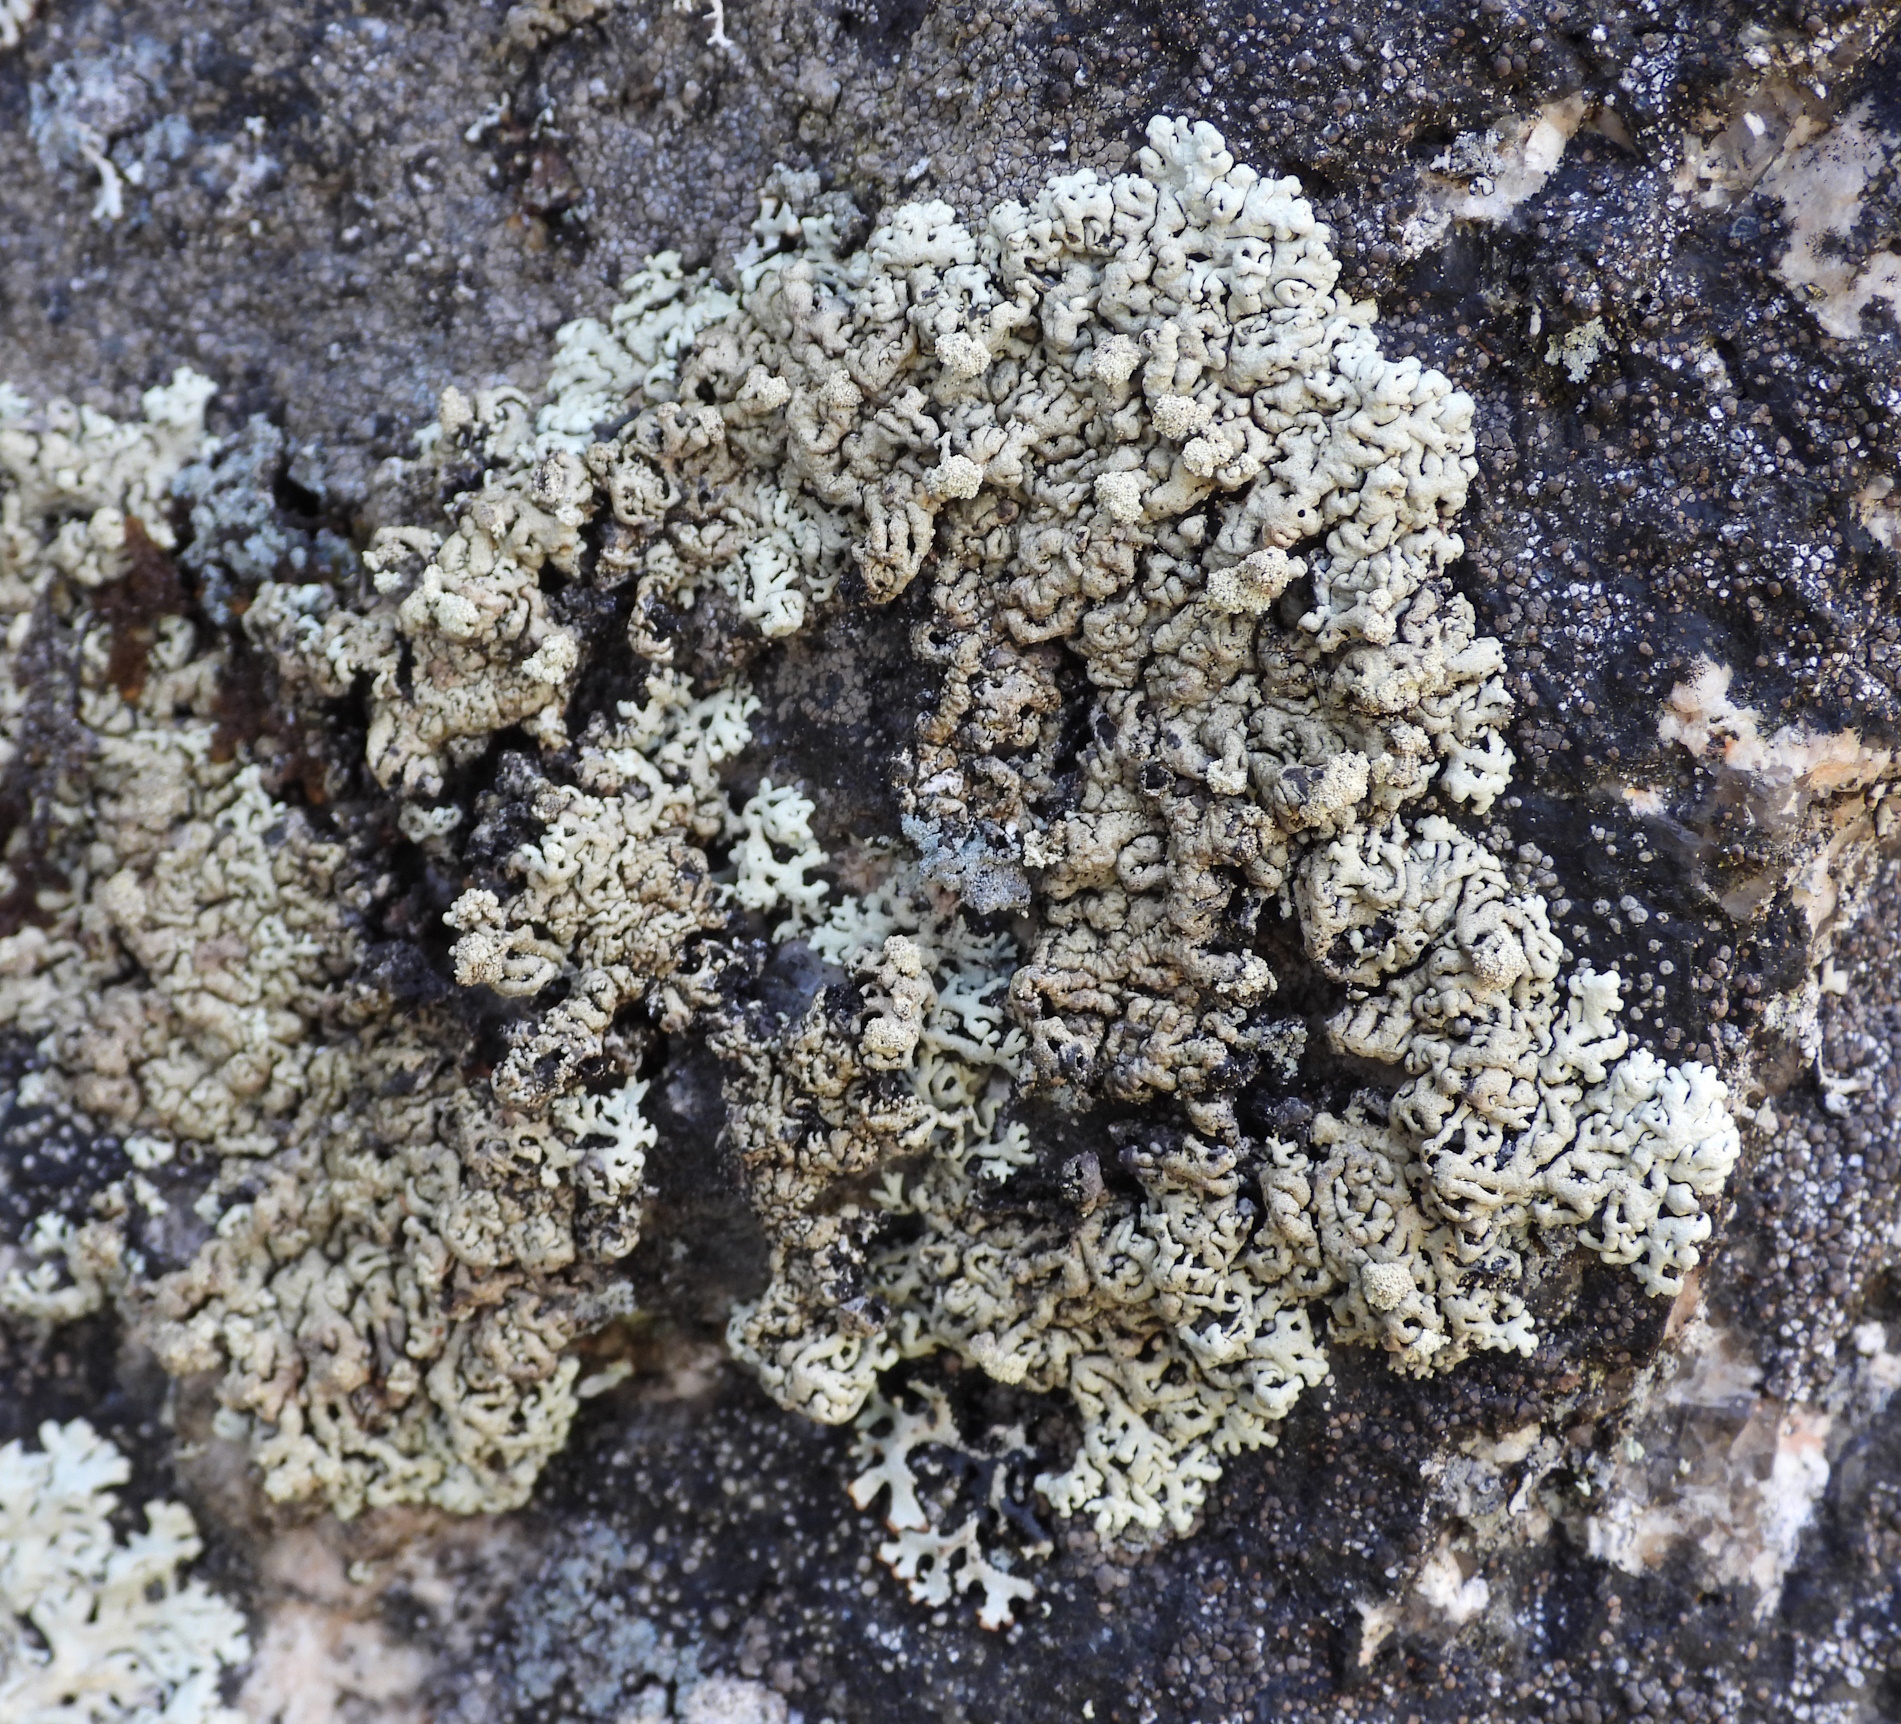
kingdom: Fungi
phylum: Ascomycota
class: Lecanoromycetes
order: Lecanorales
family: Parmeliaceae
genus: Arctoparmelia
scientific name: Arctoparmelia incurva
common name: Bent ring lichen
